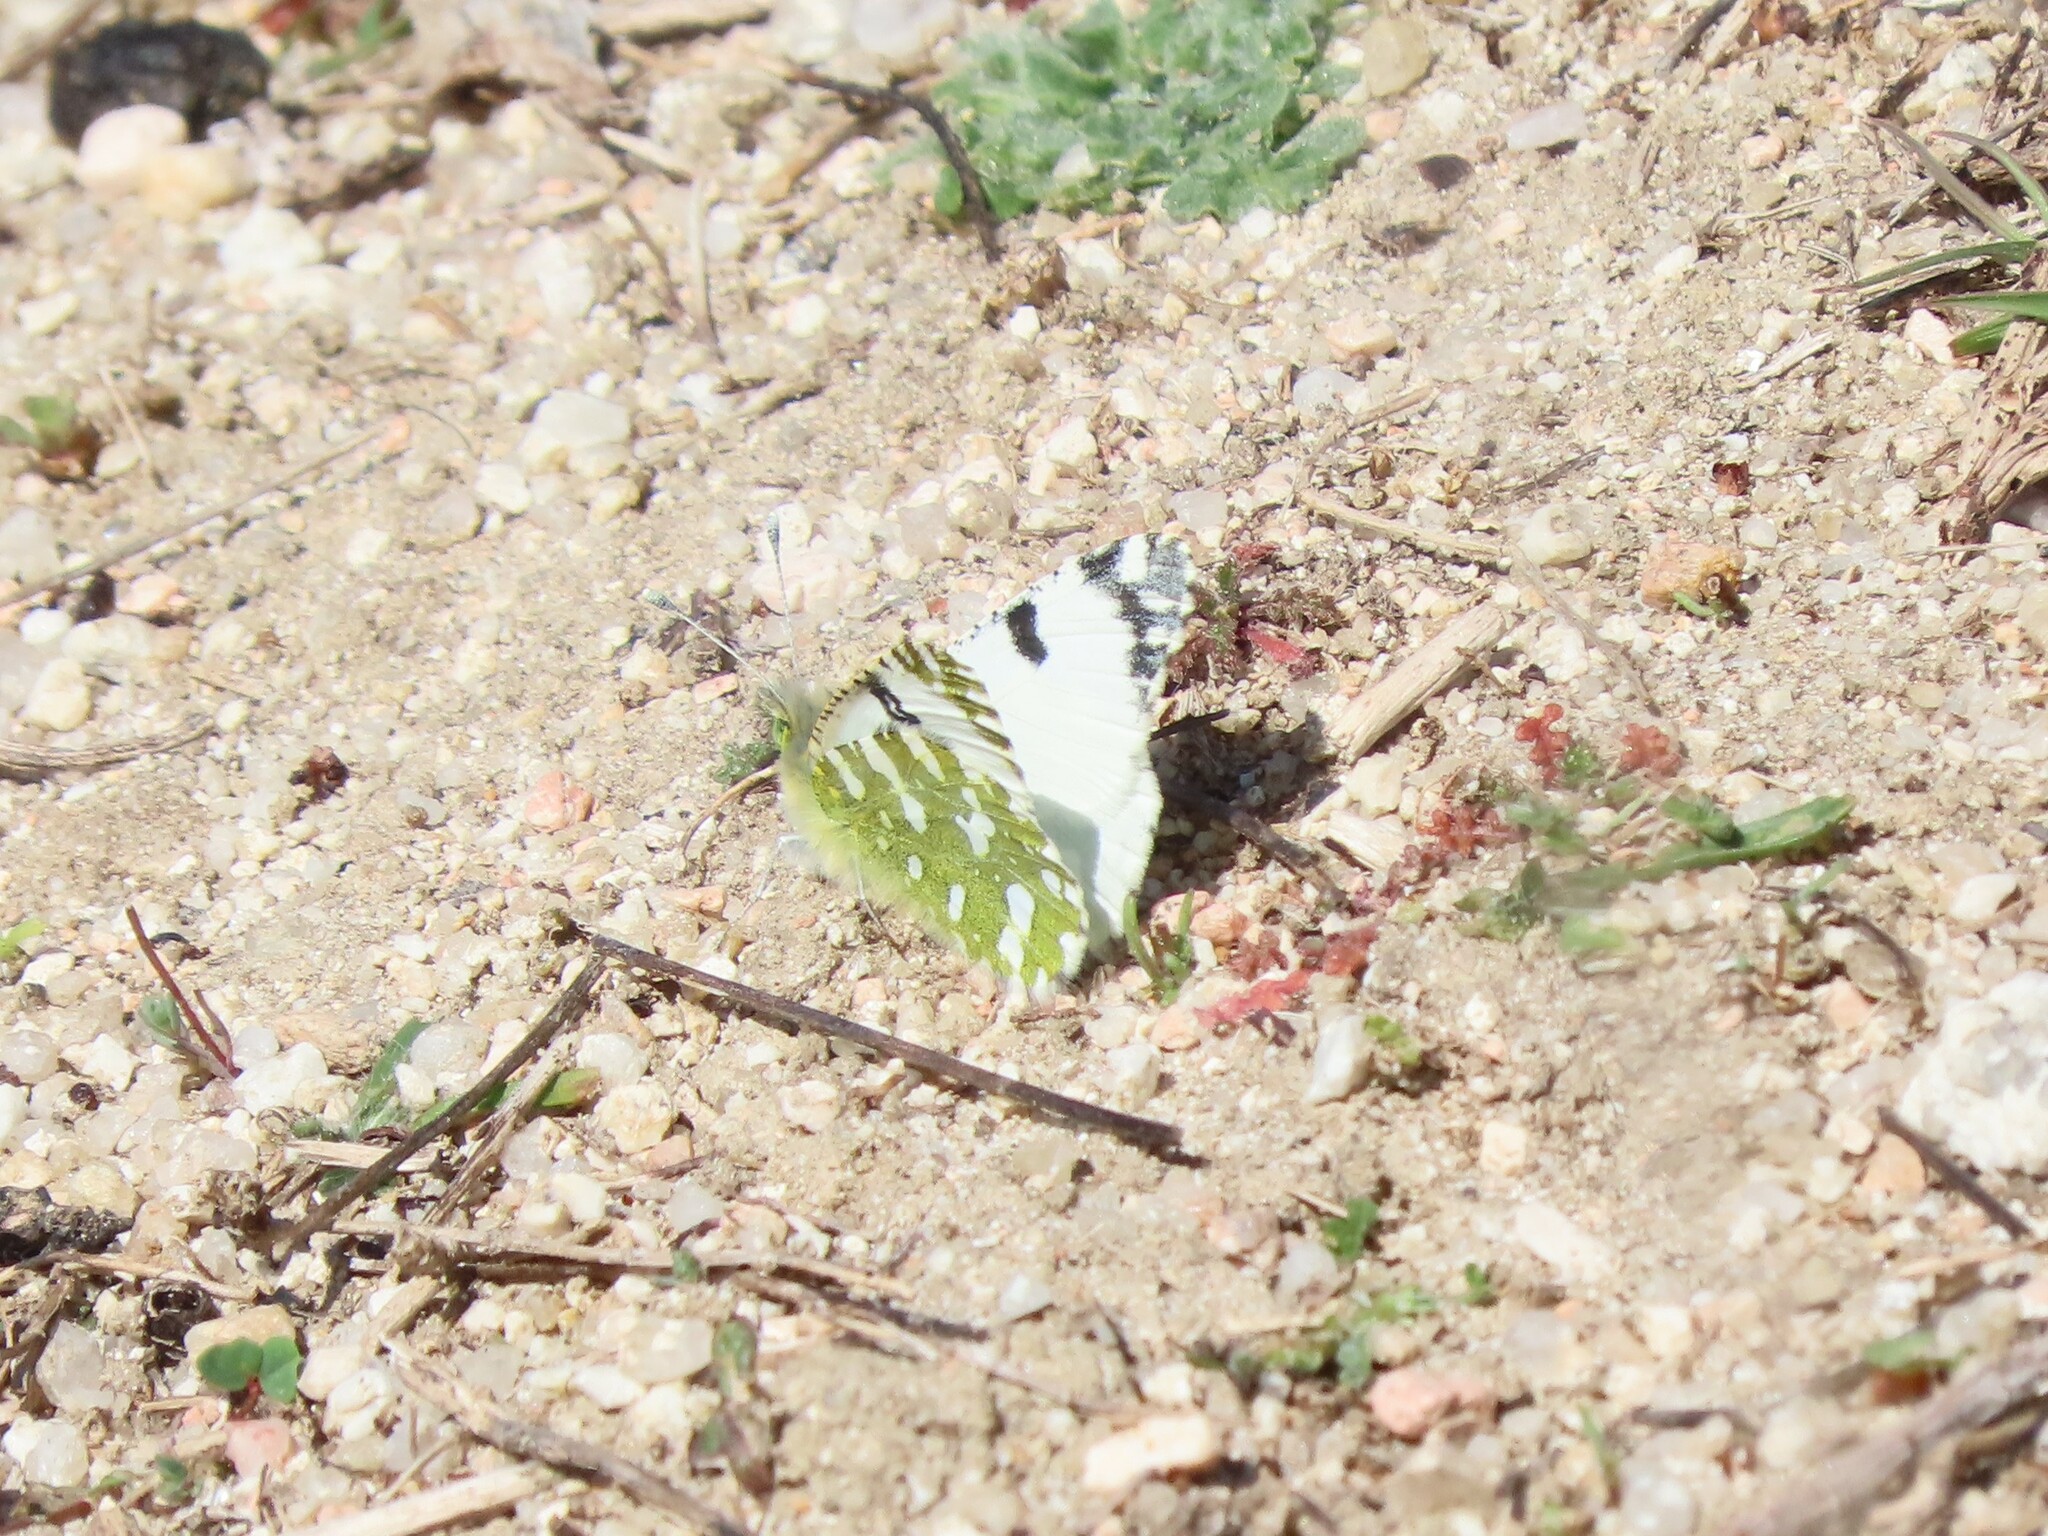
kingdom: Animalia
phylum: Arthropoda
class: Insecta
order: Lepidoptera
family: Pieridae
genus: Euchloe
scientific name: Euchloe crameri
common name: Western dappled white
